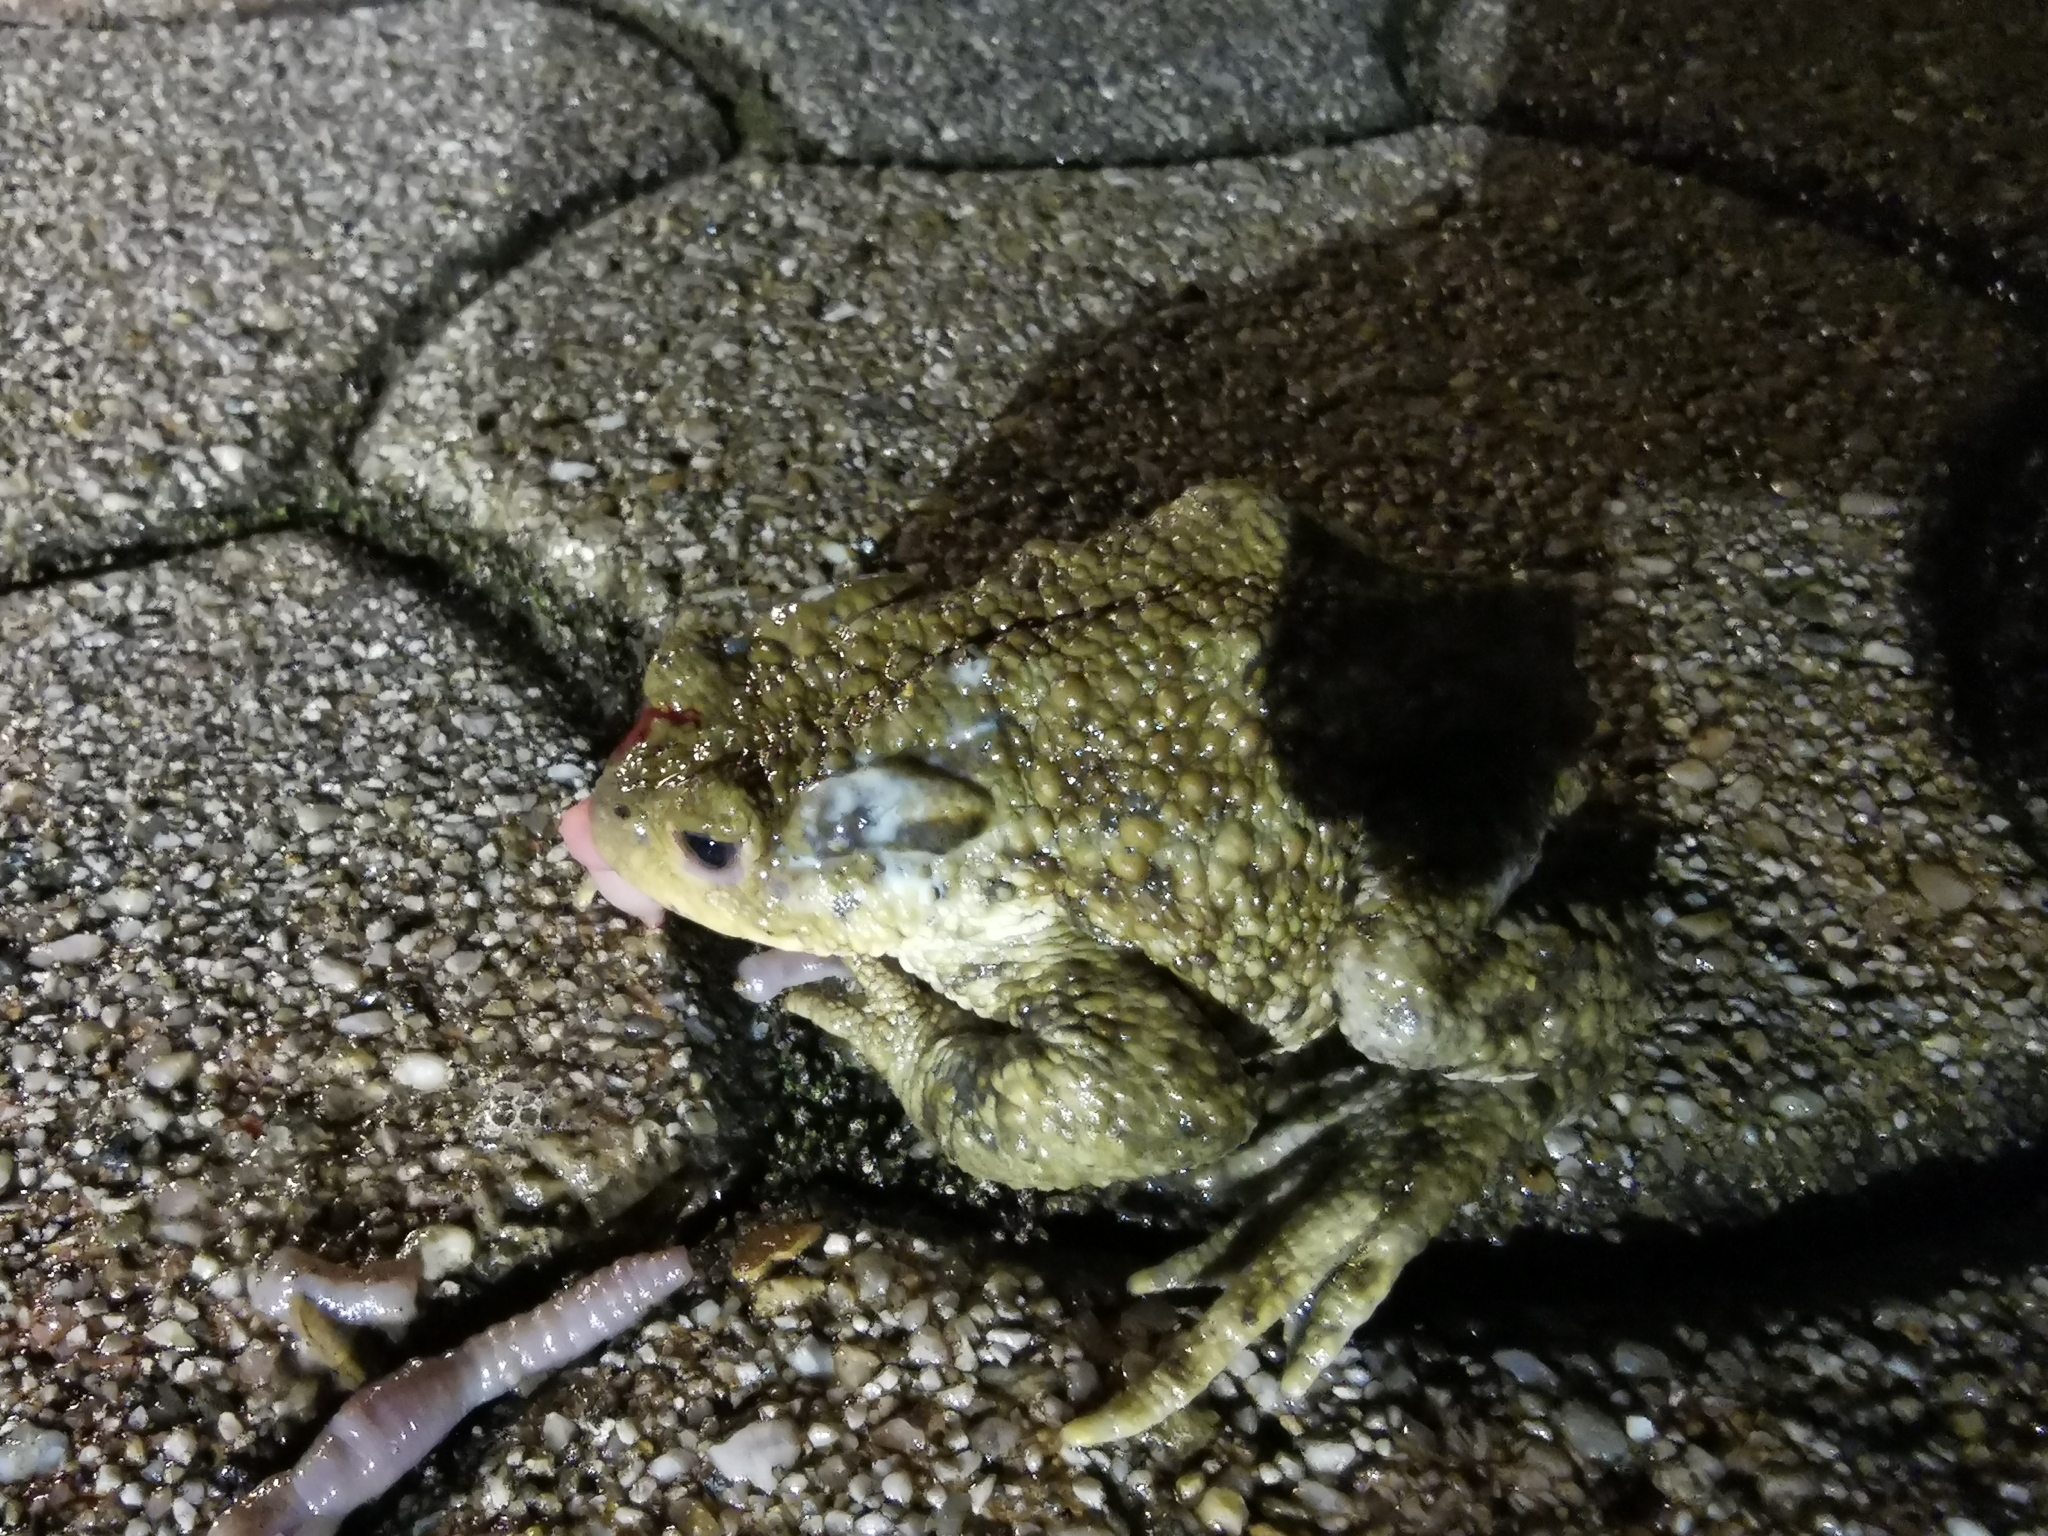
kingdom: Animalia
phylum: Chordata
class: Amphibia
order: Anura
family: Bufonidae
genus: Bufo
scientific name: Bufo bufo
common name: Common toad
